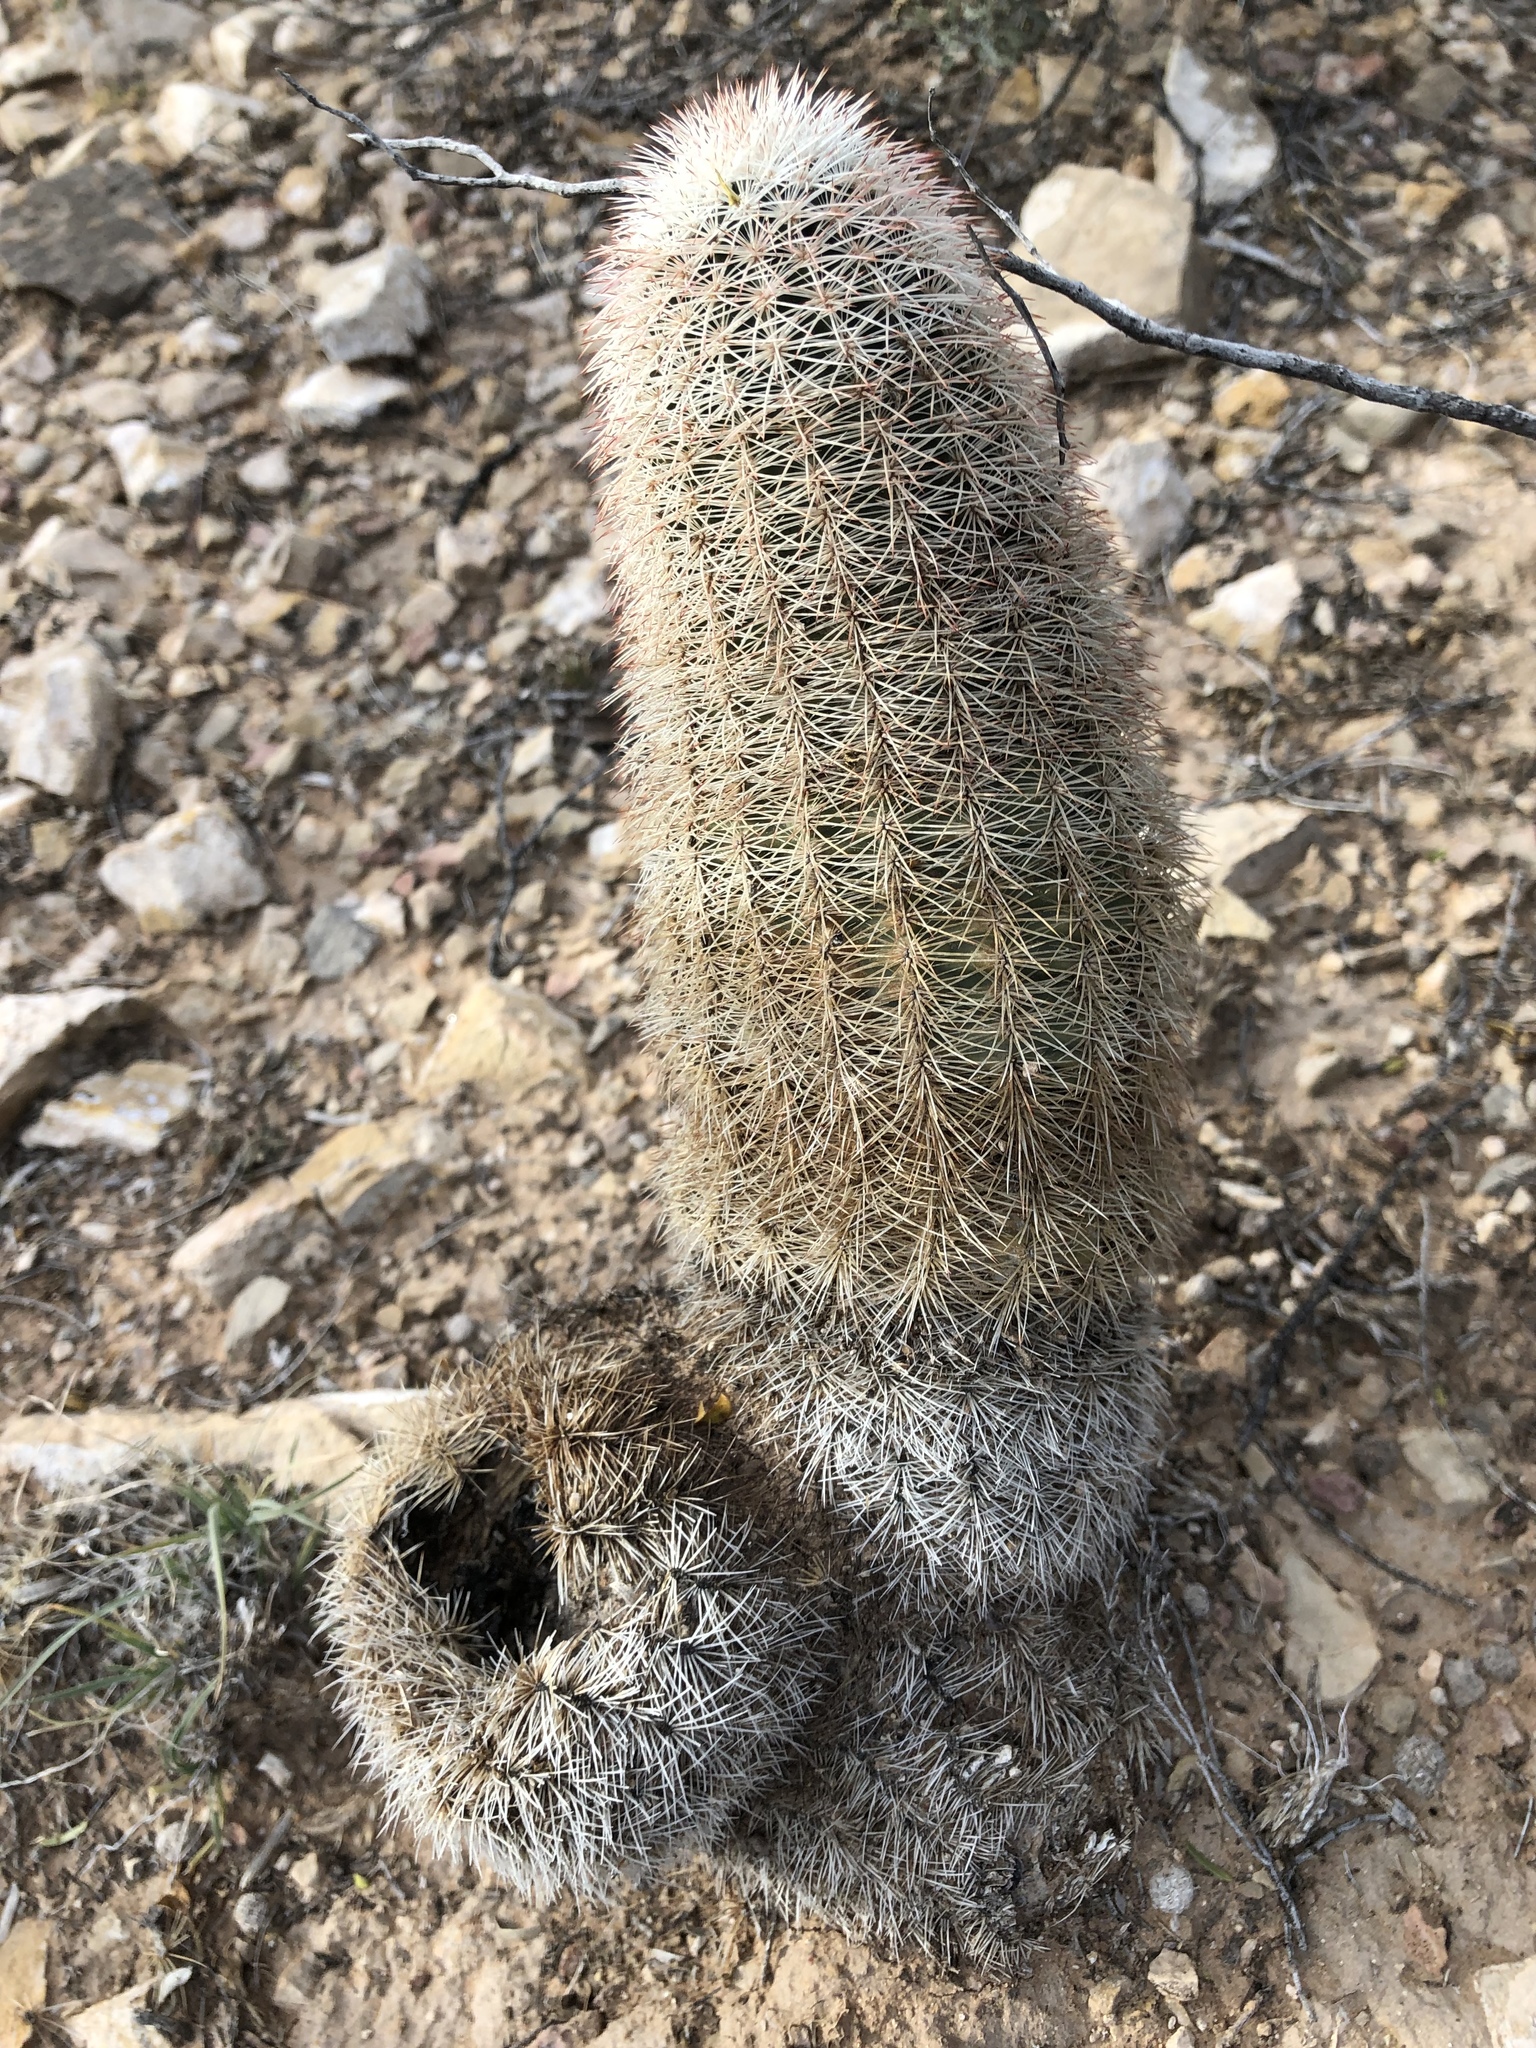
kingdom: Plantae
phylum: Tracheophyta
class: Magnoliopsida
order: Caryophyllales
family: Cactaceae
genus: Echinocereus
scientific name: Echinocereus dasyacanthus
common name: Spiny hedgehog cactus
